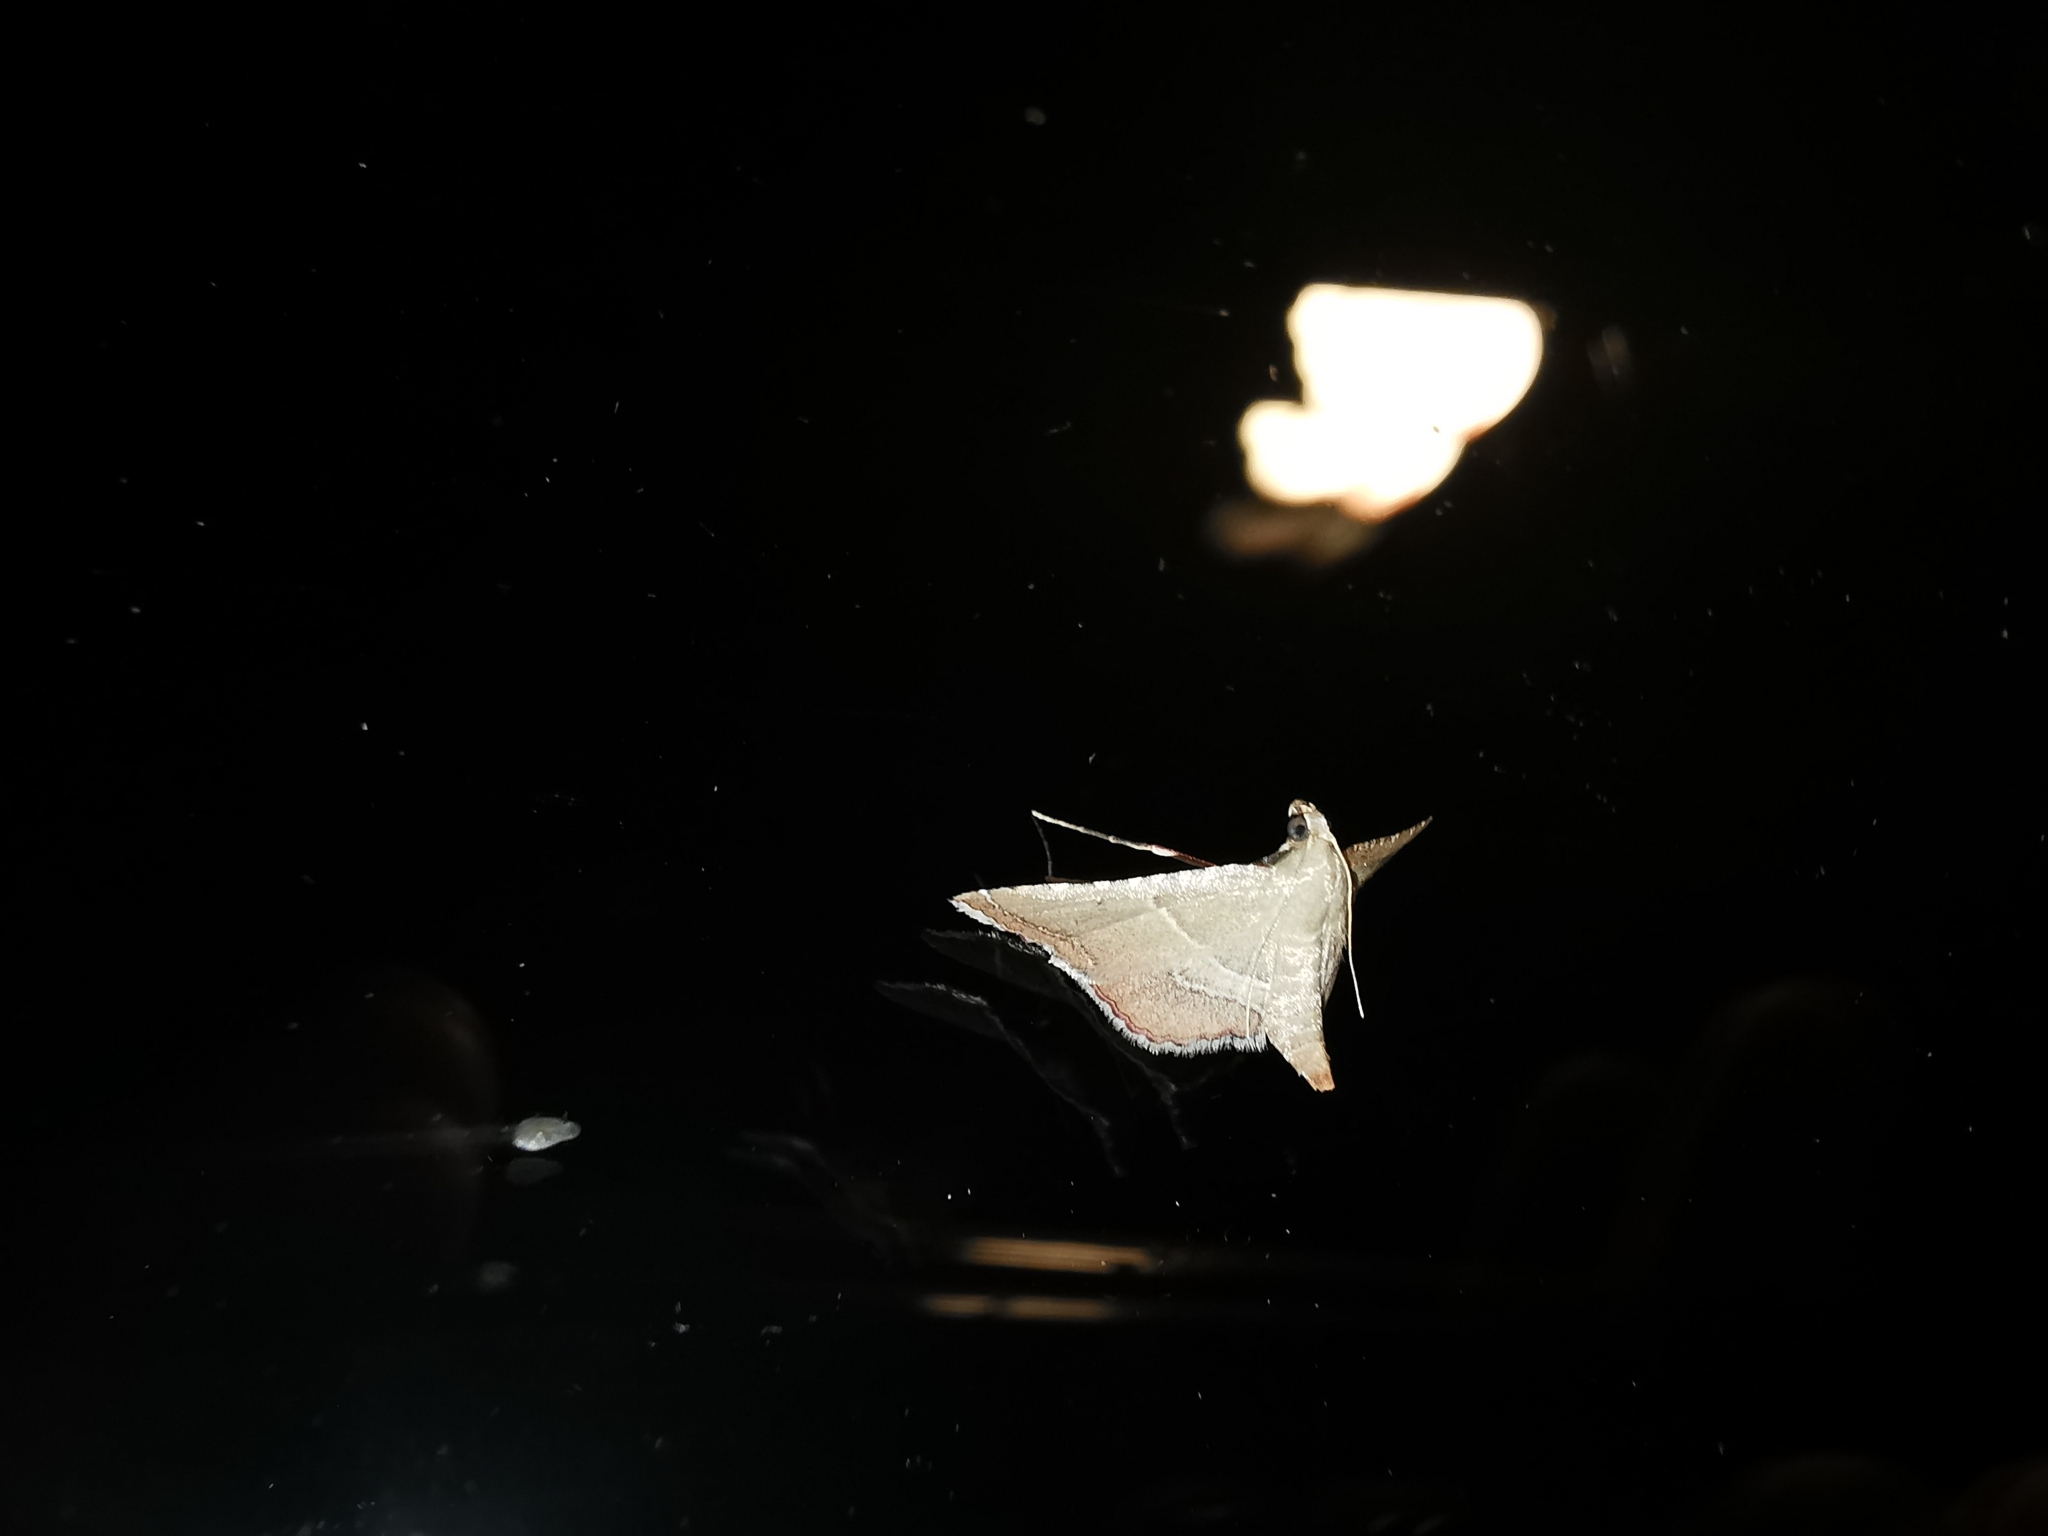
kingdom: Animalia
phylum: Arthropoda
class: Insecta
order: Lepidoptera
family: Pyralidae
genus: Endotricha
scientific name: Endotricha flammealis
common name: Rosy tabby
